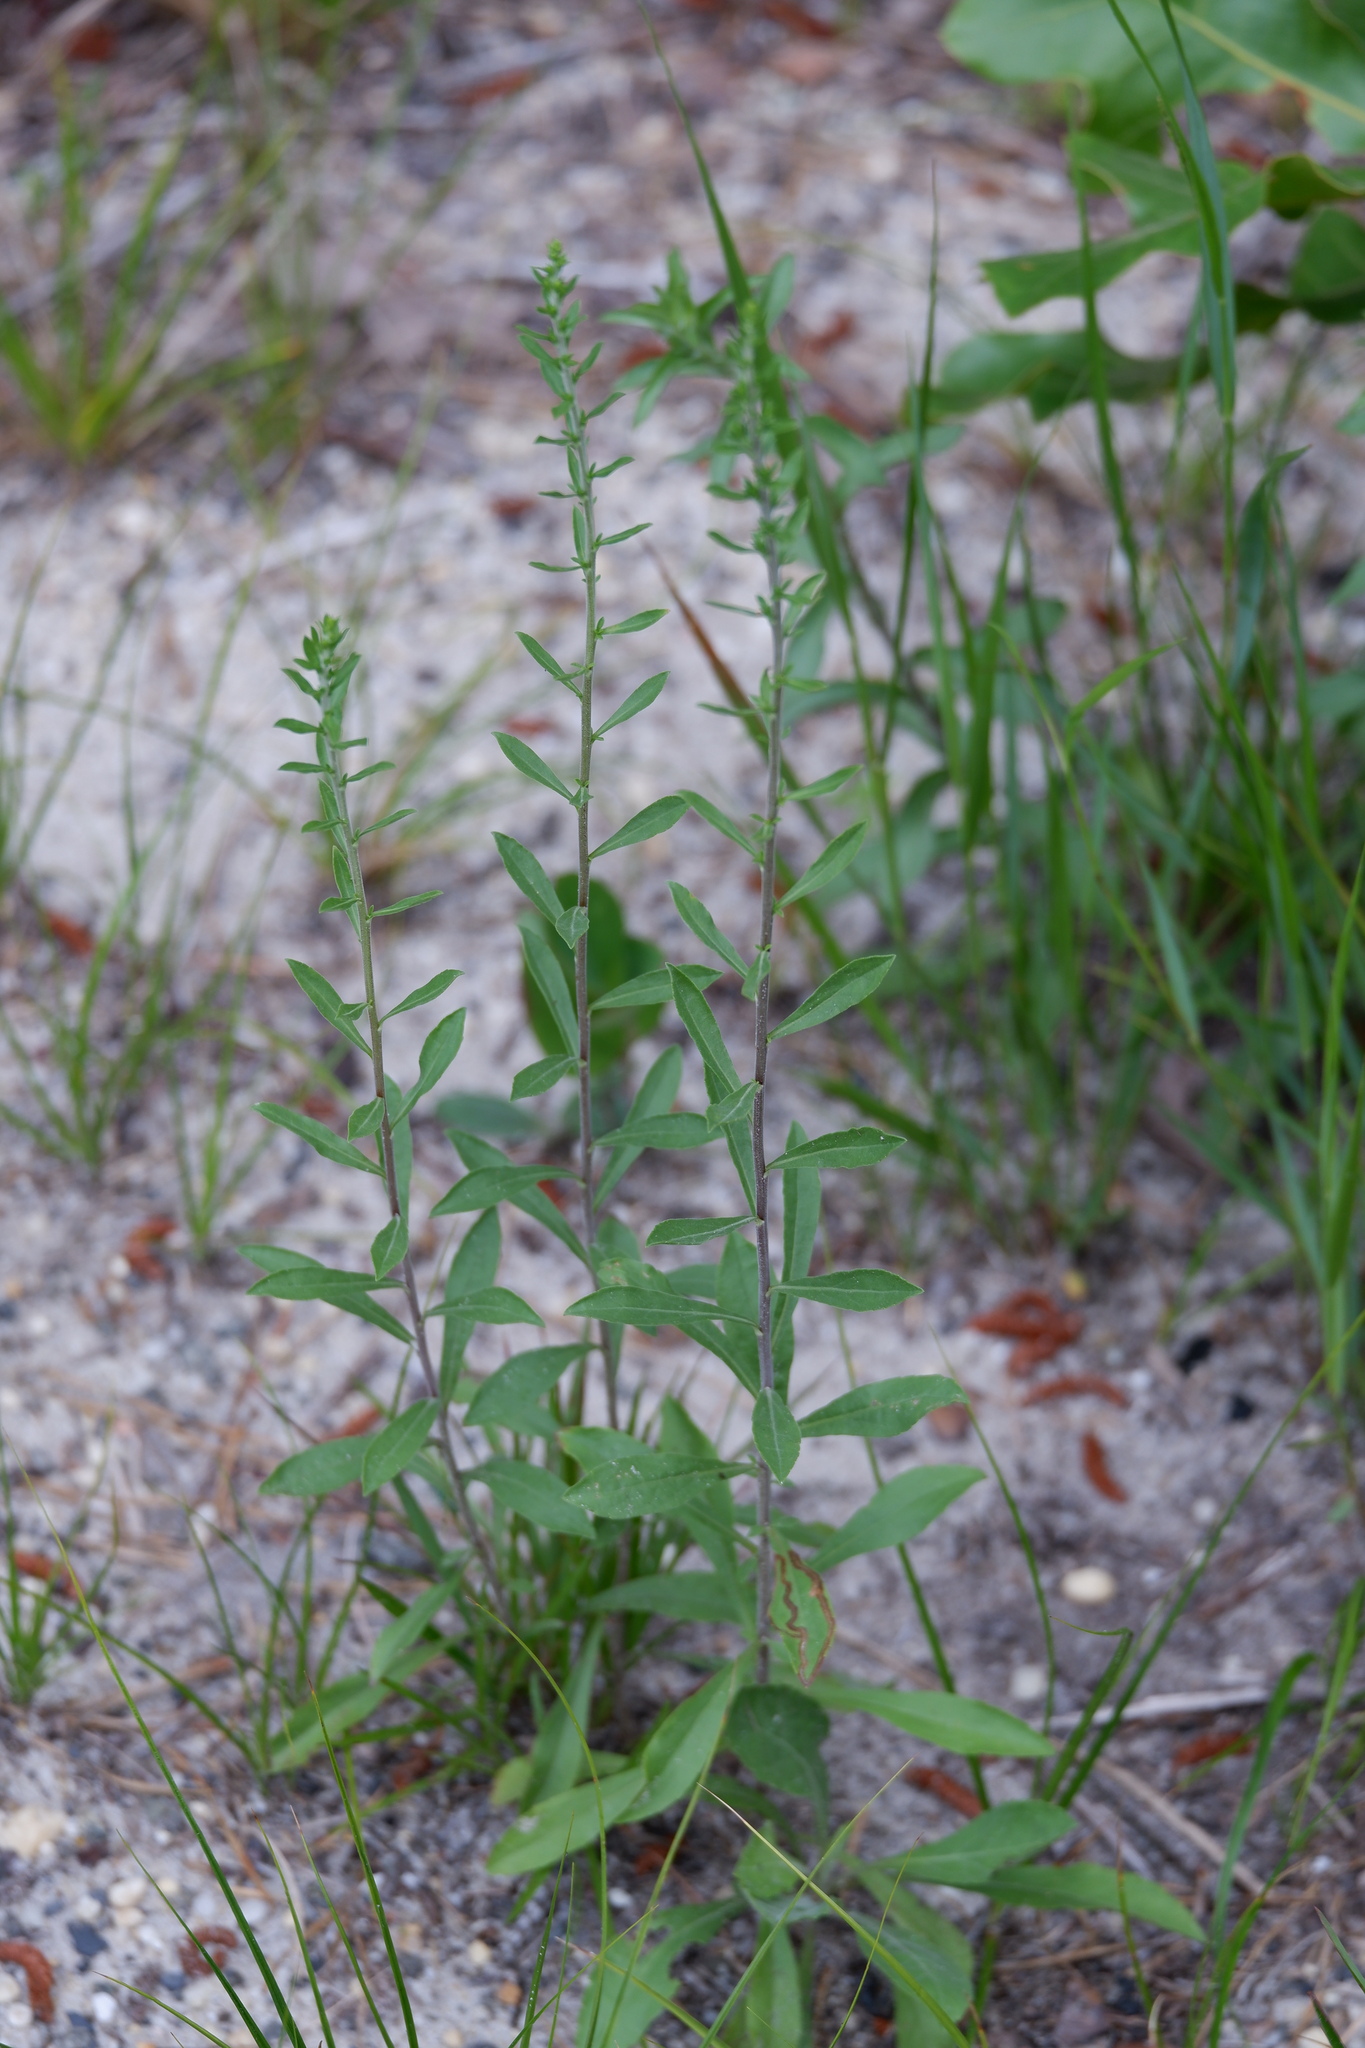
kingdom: Plantae
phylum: Tracheophyta
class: Magnoliopsida
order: Asterales
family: Asteraceae
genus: Solidago
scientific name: Solidago nemoralis
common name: Grey goldenrod
